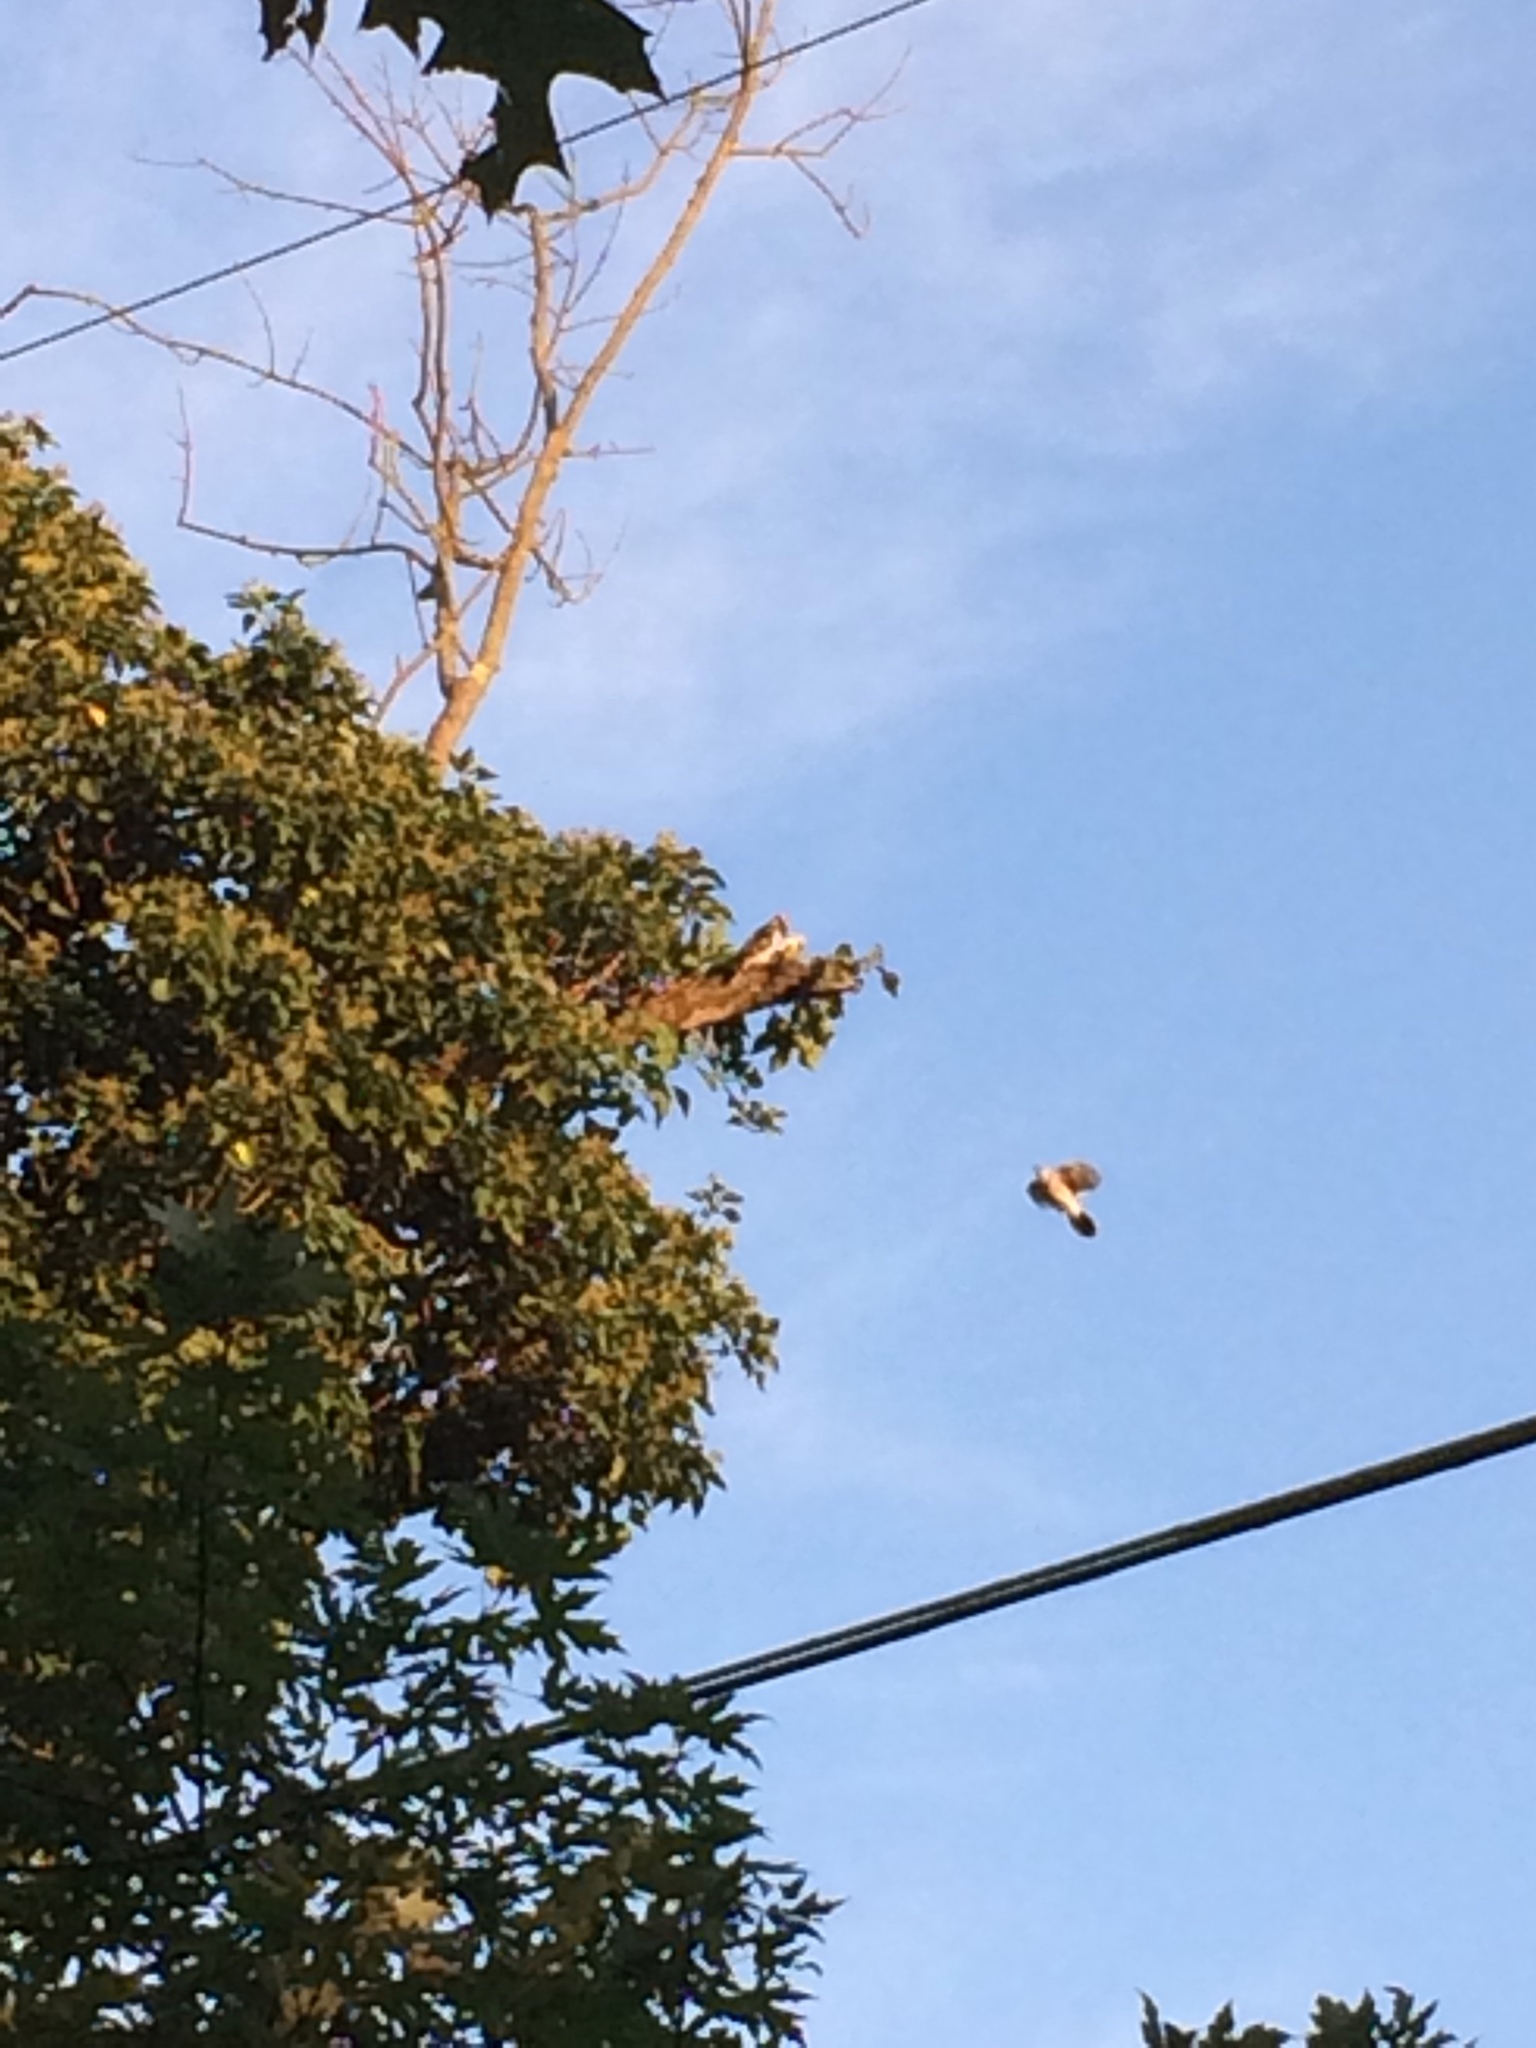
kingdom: Animalia
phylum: Chordata
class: Aves
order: Passeriformes
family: Corvidae
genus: Cyanocitta
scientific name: Cyanocitta cristata
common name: Blue jay
